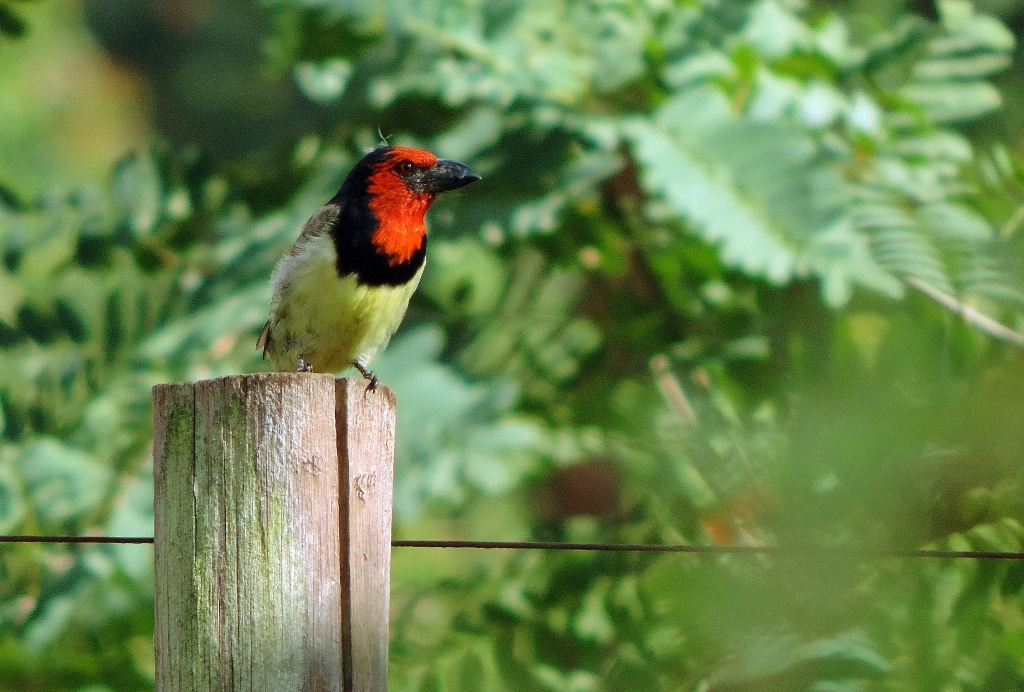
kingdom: Animalia
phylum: Chordata
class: Aves
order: Piciformes
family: Lybiidae
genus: Lybius
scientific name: Lybius torquatus
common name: Black-collared barbet
